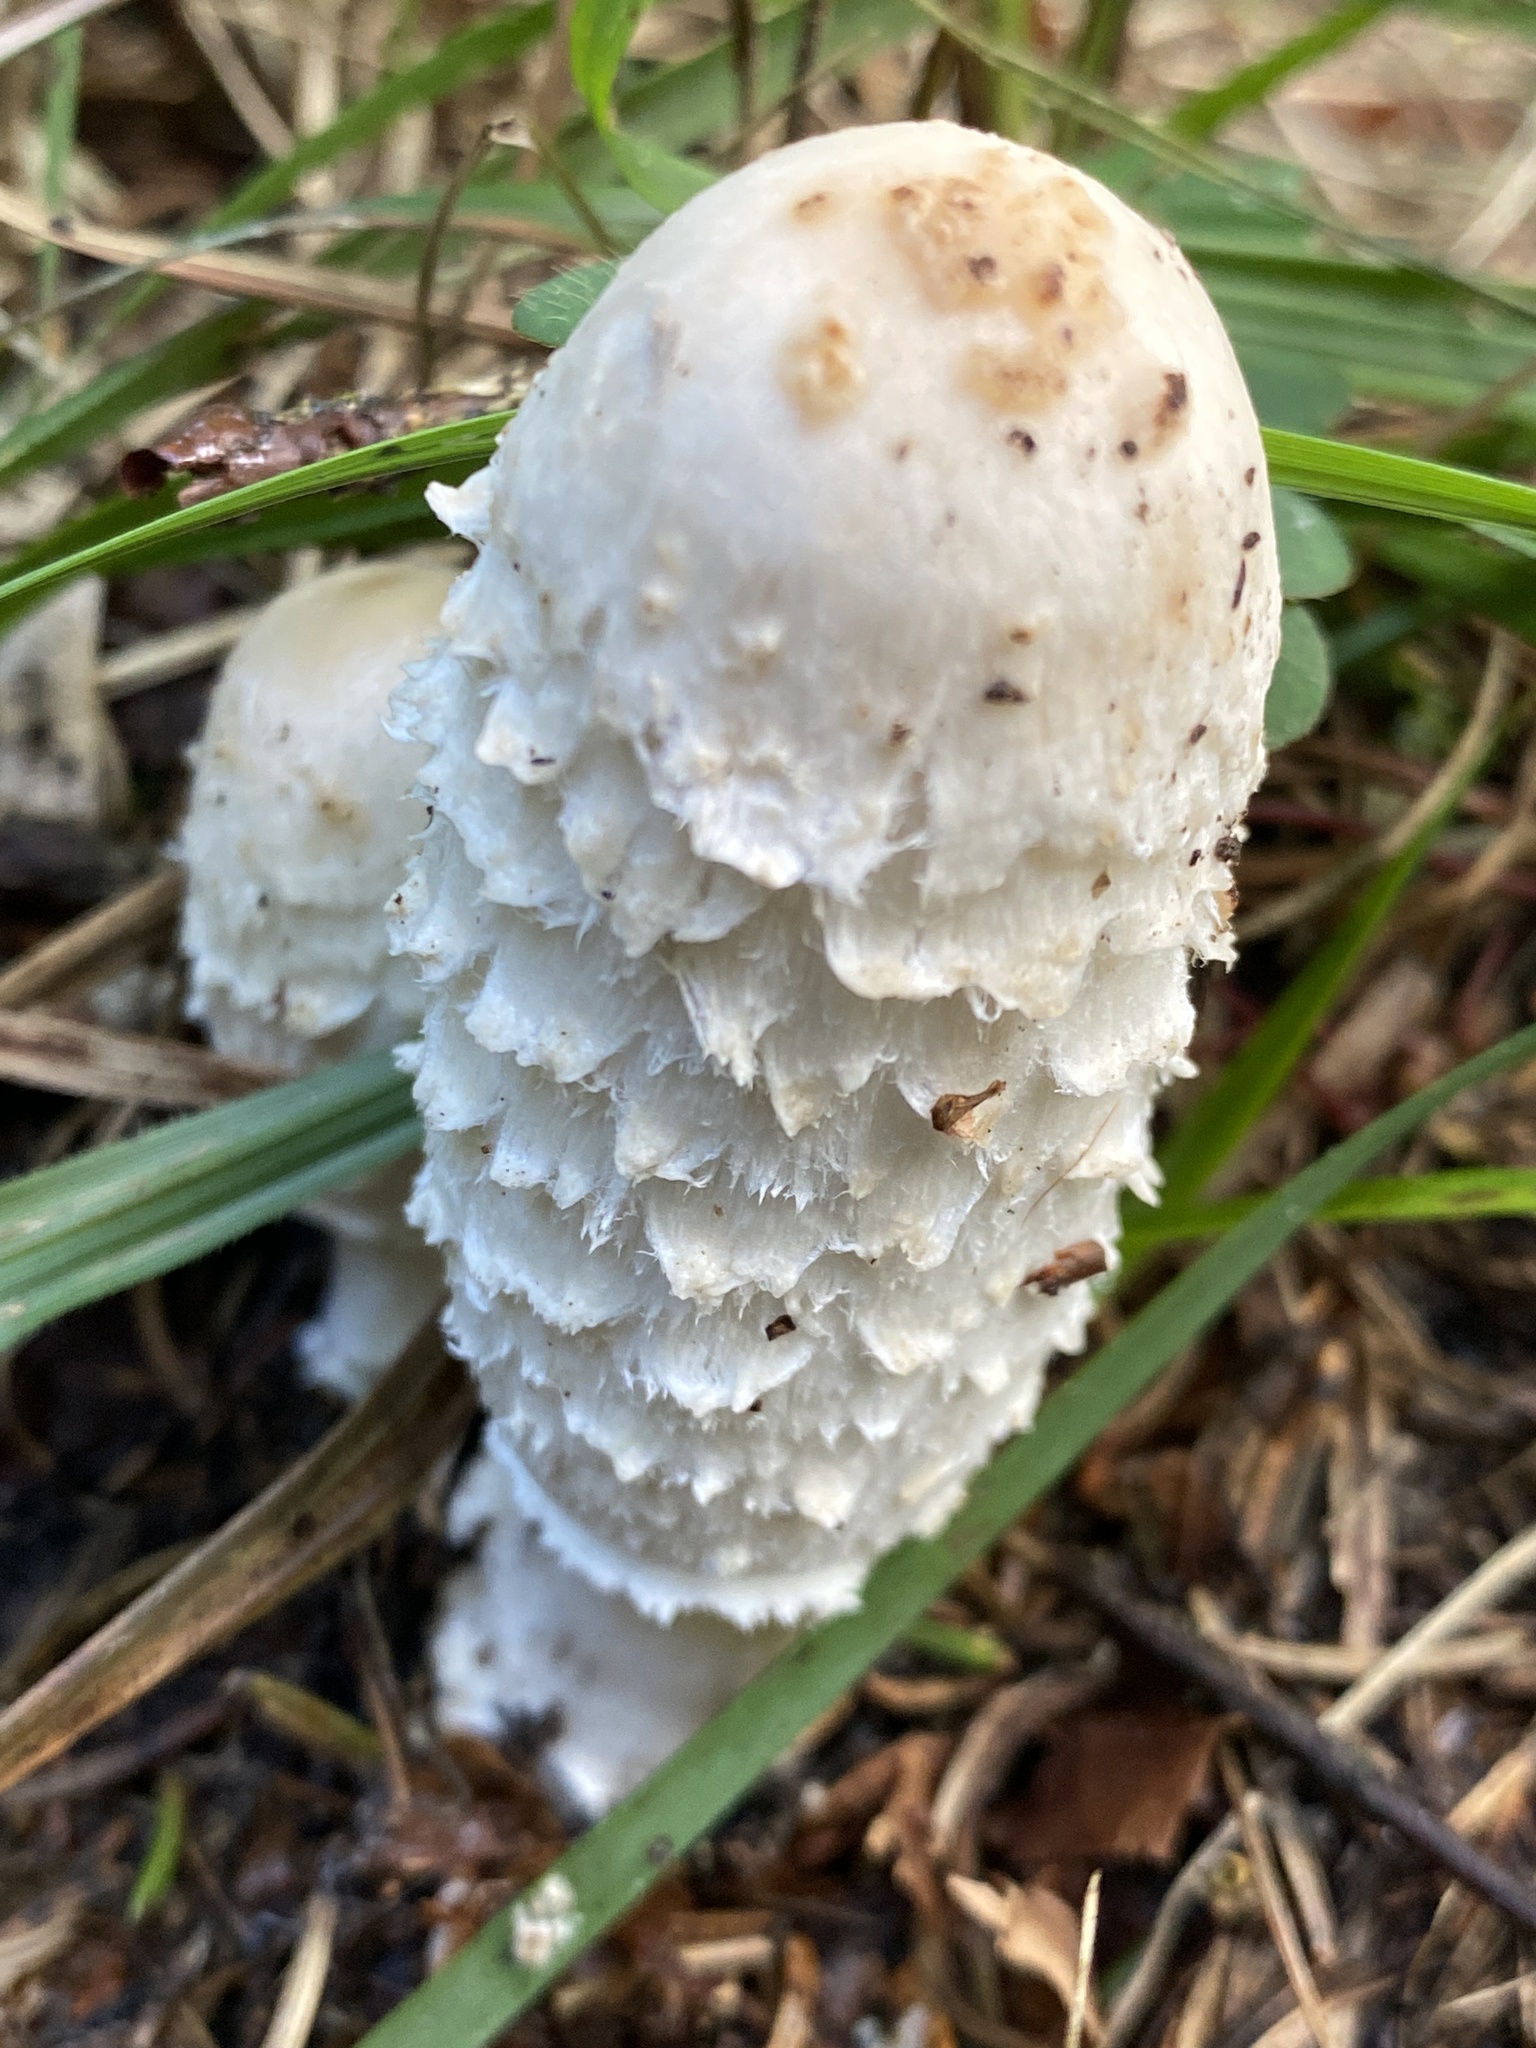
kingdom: Fungi
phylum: Basidiomycota
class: Agaricomycetes
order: Agaricales
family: Agaricaceae
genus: Coprinus
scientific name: Coprinus comatus
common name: Lawyer's wig
